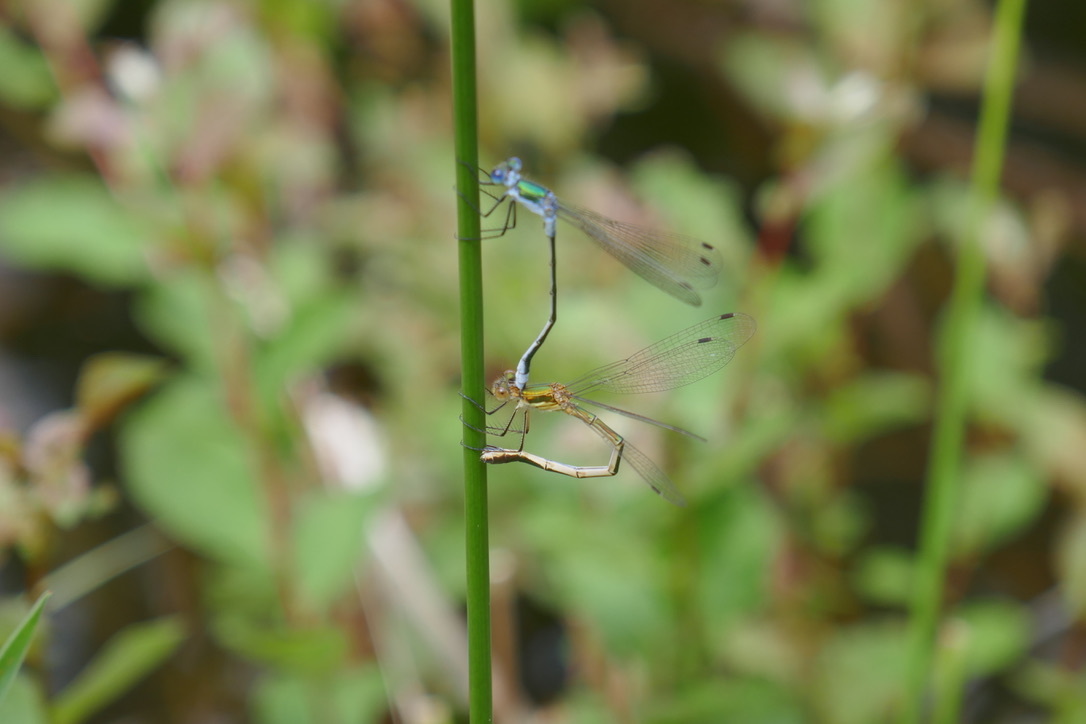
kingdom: Animalia
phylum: Arthropoda
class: Insecta
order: Odonata
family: Lestidae
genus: Lestes
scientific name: Lestes sponsa
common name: Common spreadwing
